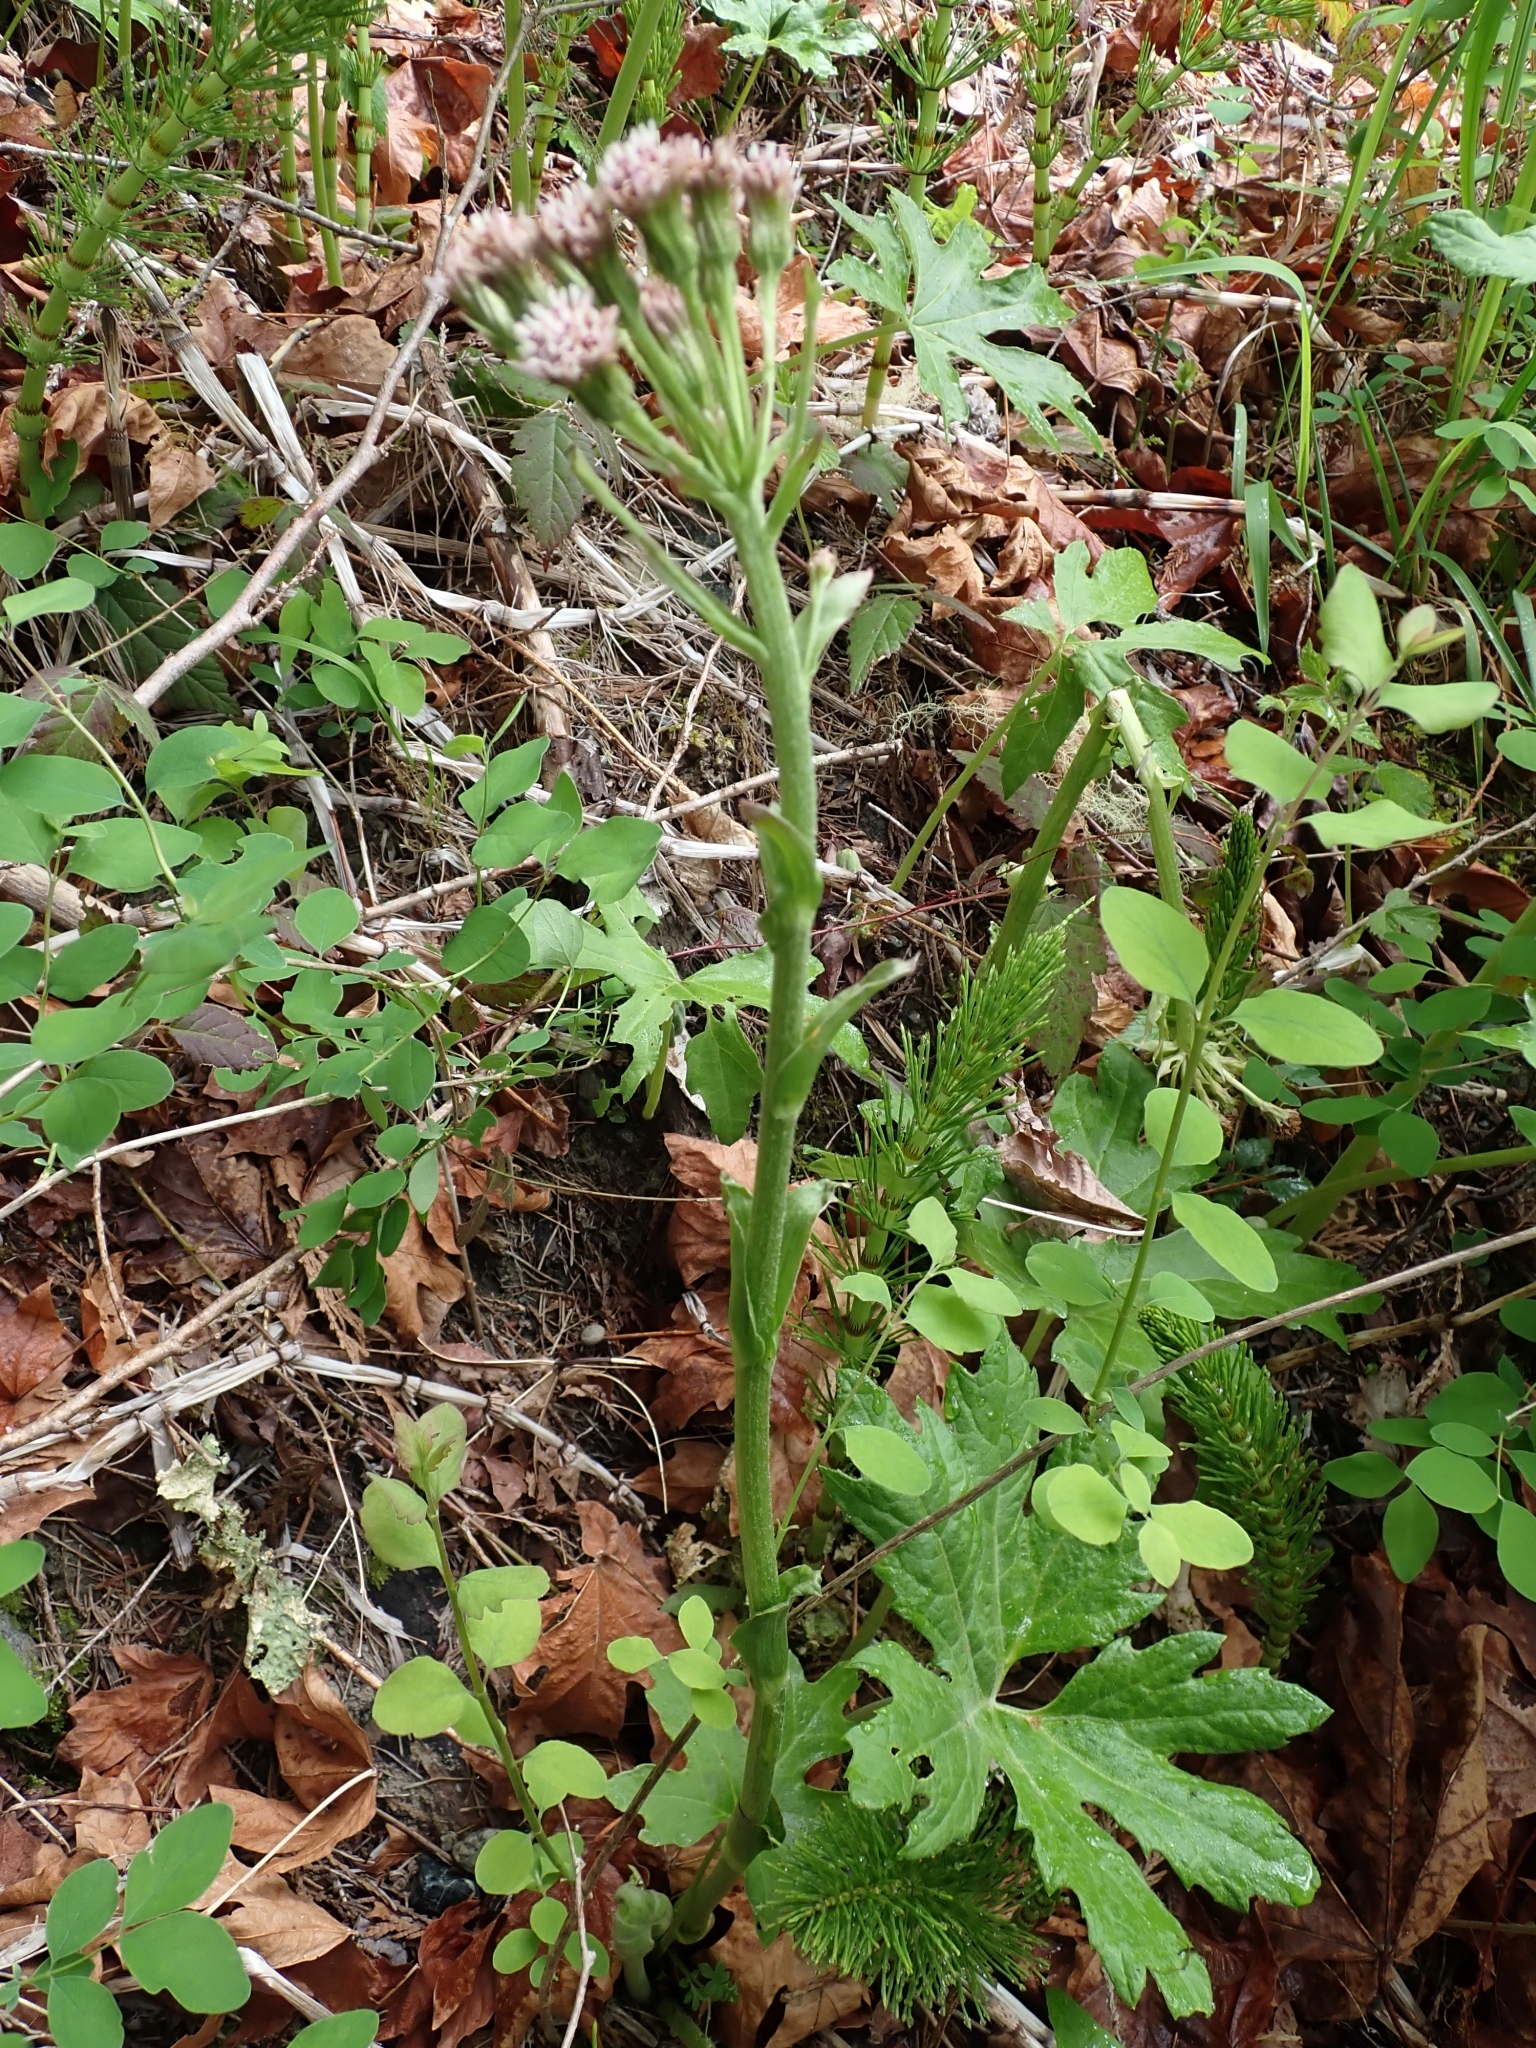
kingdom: Plantae
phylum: Tracheophyta
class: Magnoliopsida
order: Asterales
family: Asteraceae
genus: Petasites
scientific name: Petasites frigidus
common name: Arctic butterbur
